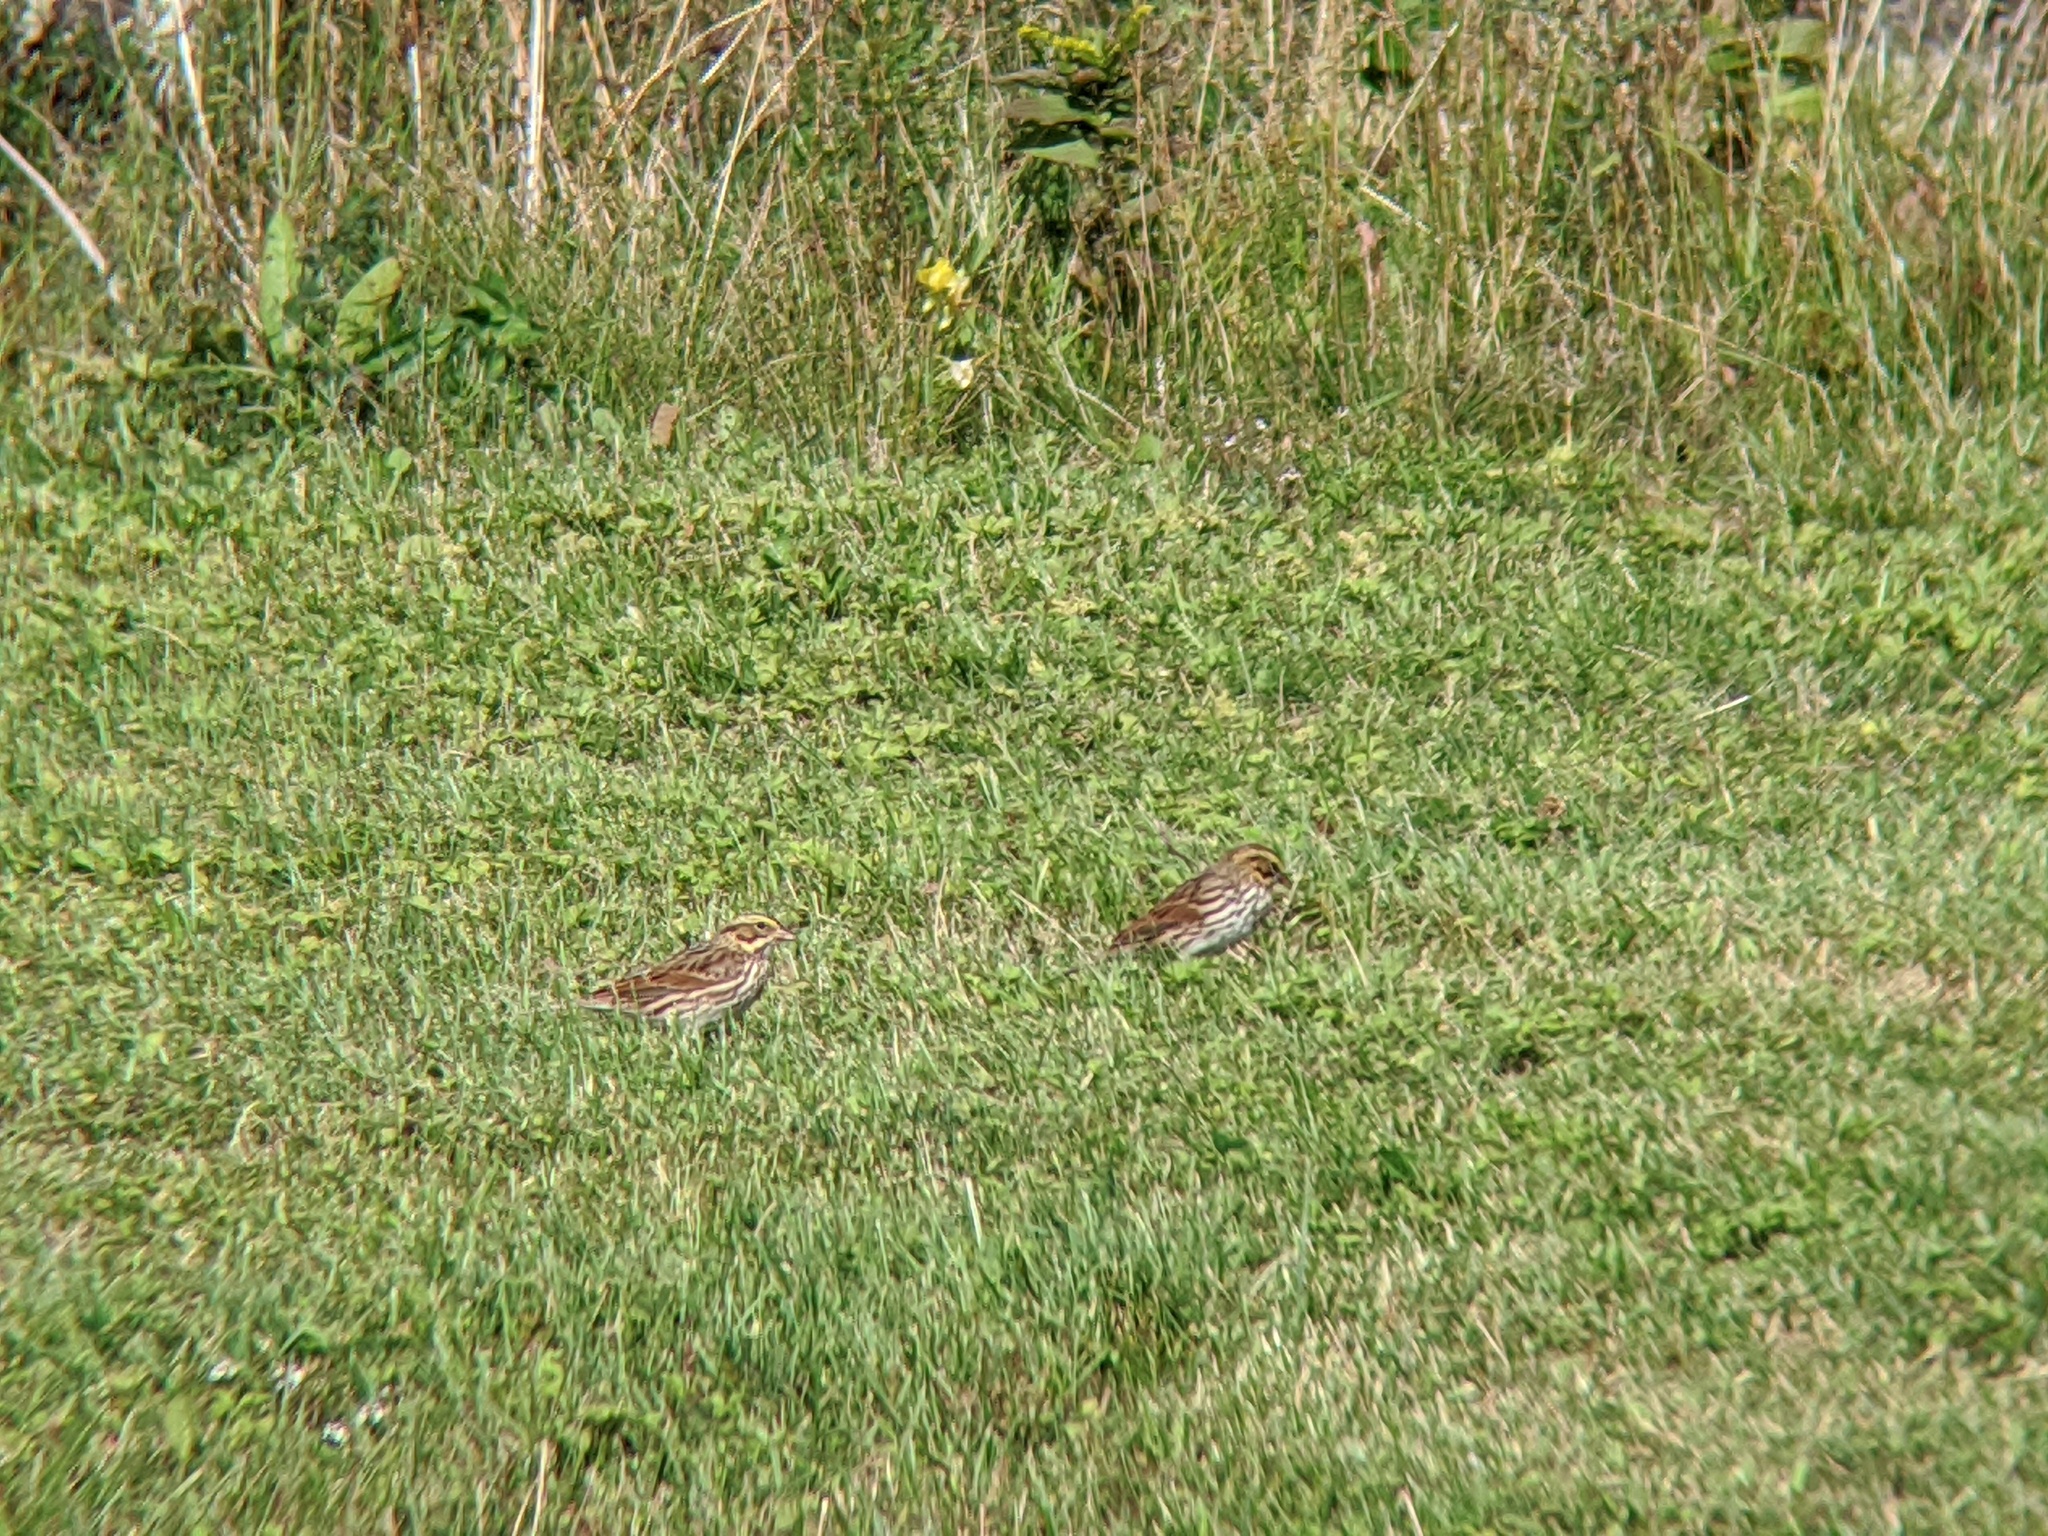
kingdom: Animalia
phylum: Chordata
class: Aves
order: Passeriformes
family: Passerellidae
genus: Passerculus
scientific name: Passerculus sandwichensis
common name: Savannah sparrow
